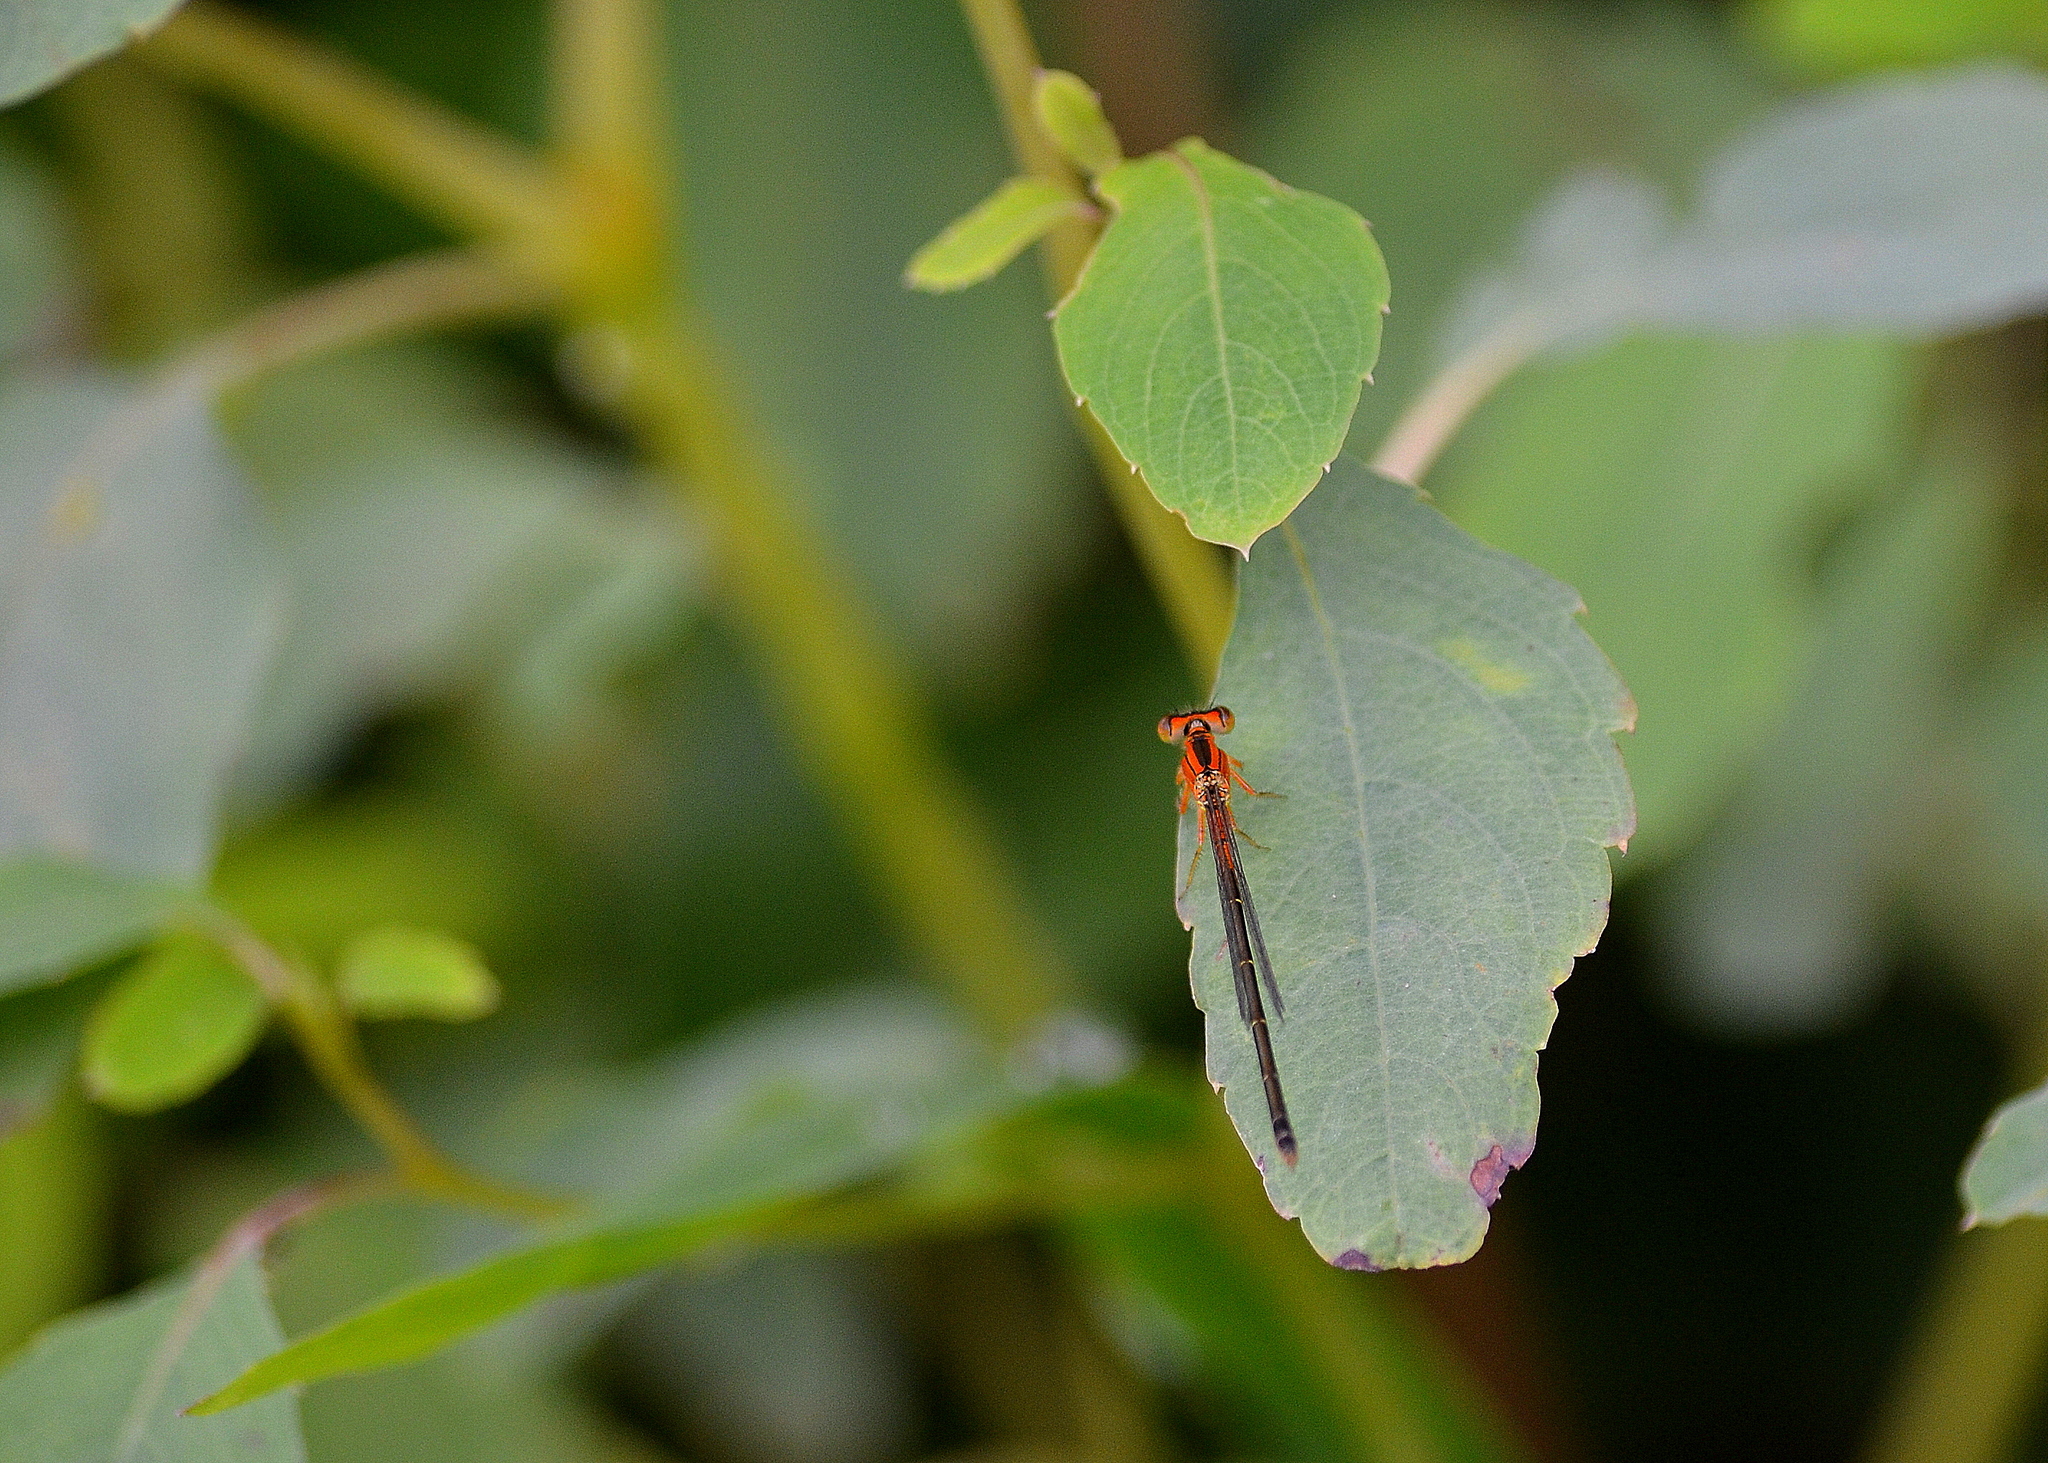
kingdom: Animalia
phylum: Arthropoda
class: Insecta
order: Odonata
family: Coenagrionidae
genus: Ischnura
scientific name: Ischnura verticalis
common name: Eastern forktail
